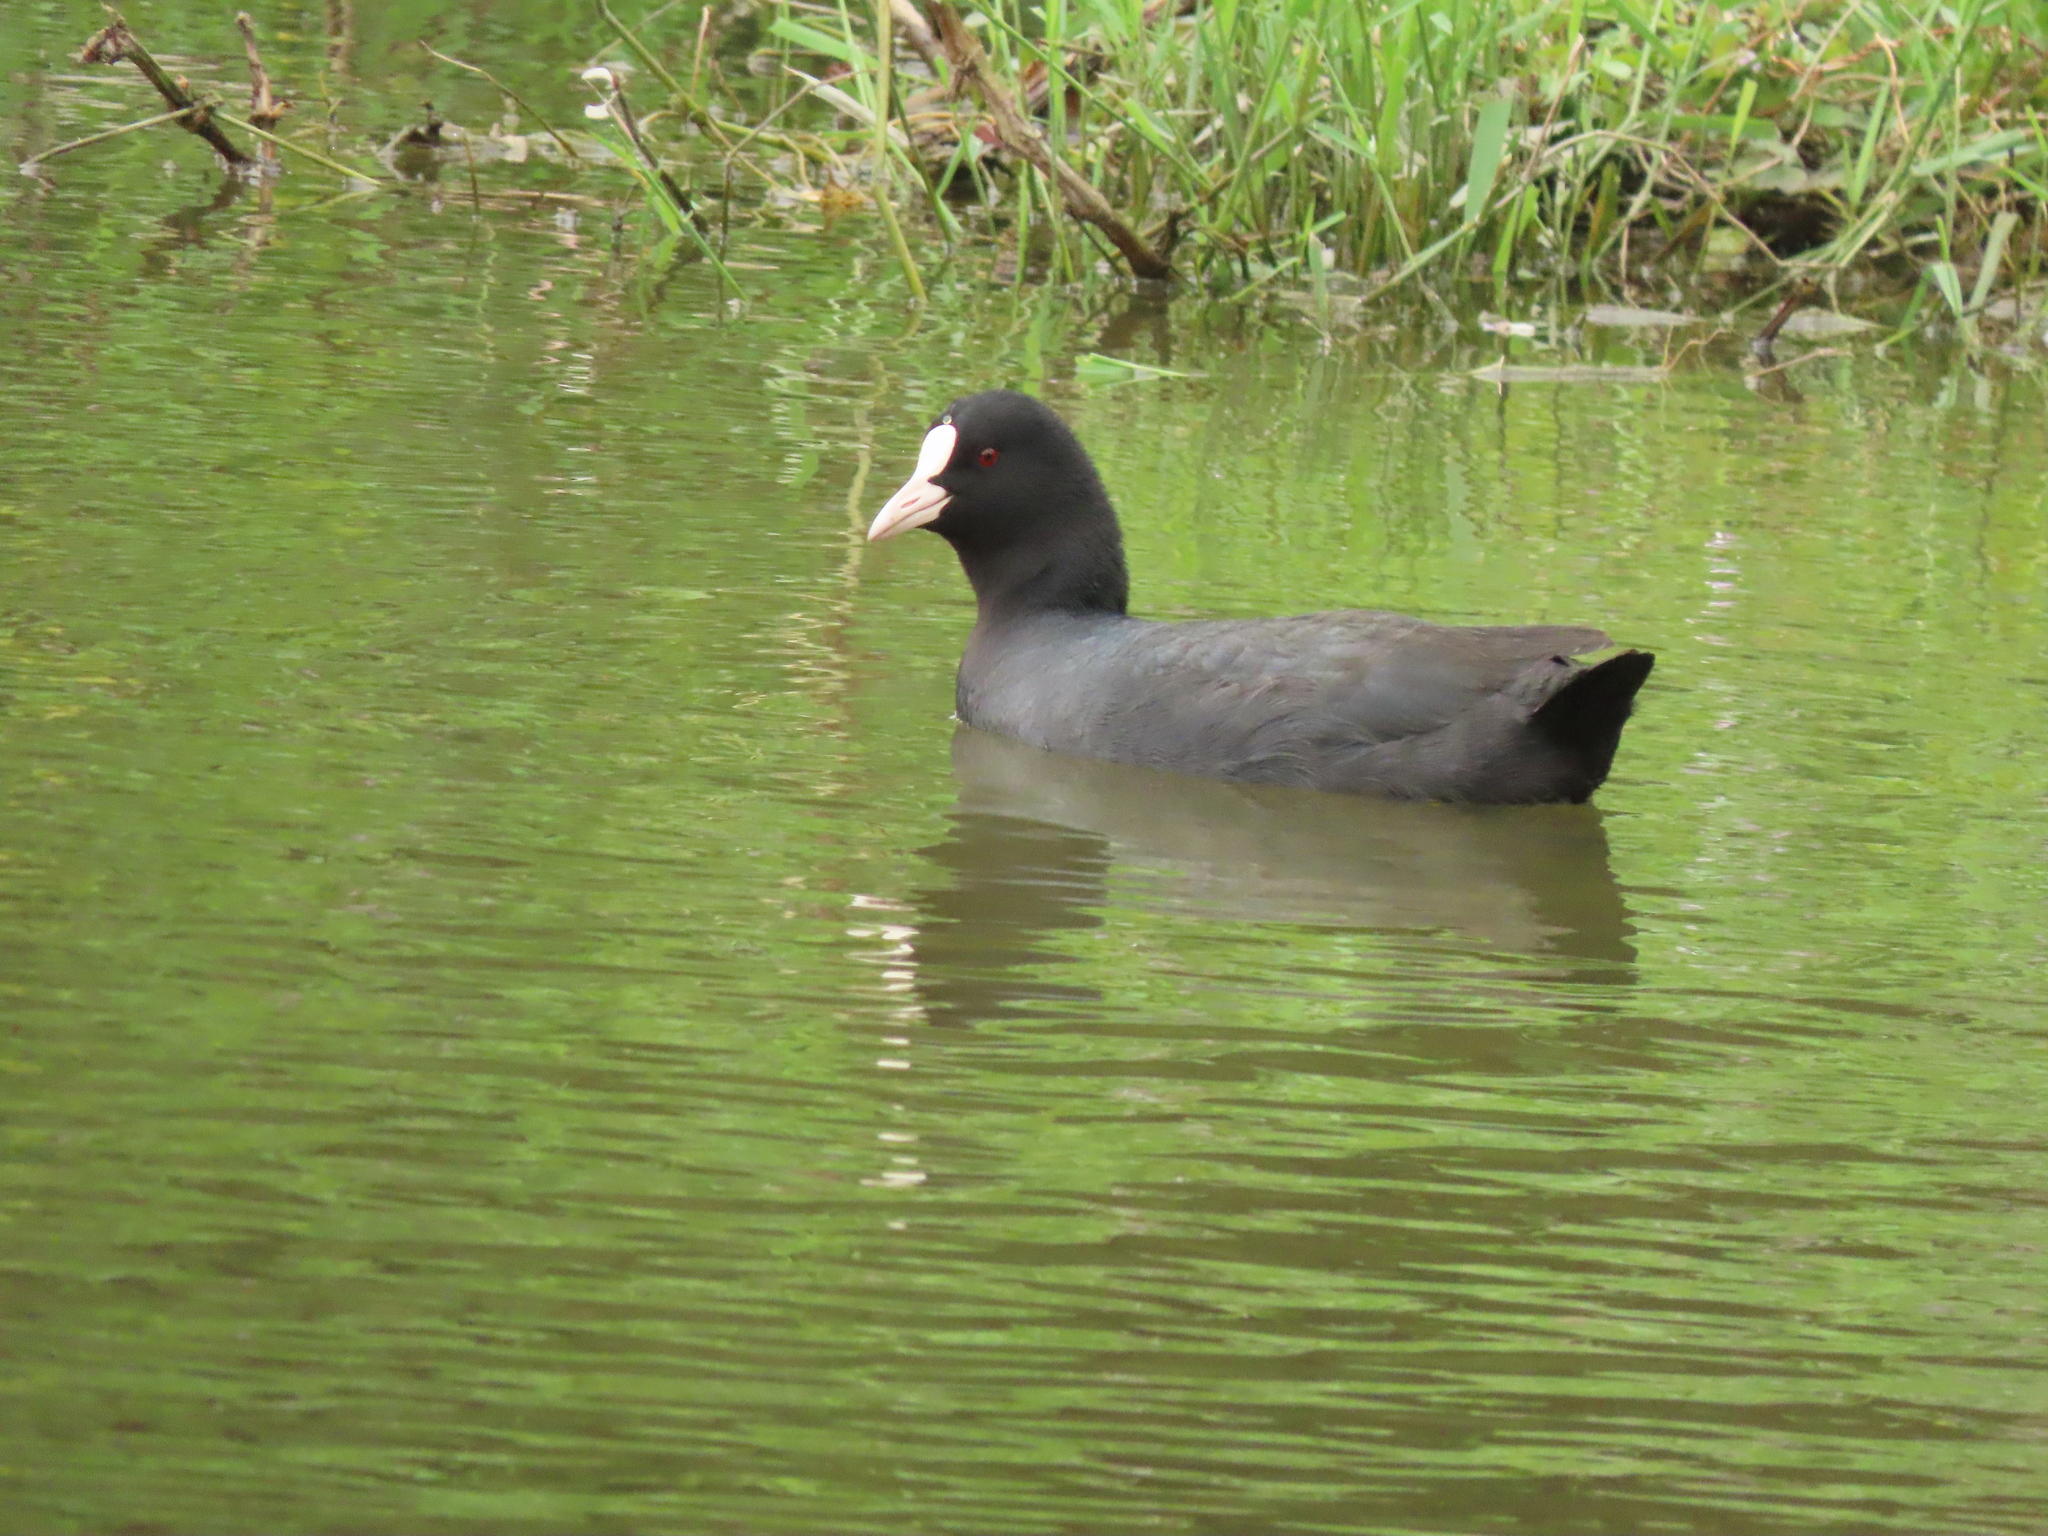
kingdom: Animalia
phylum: Chordata
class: Aves
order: Gruiformes
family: Rallidae
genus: Fulica
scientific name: Fulica atra
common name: Eurasian coot
